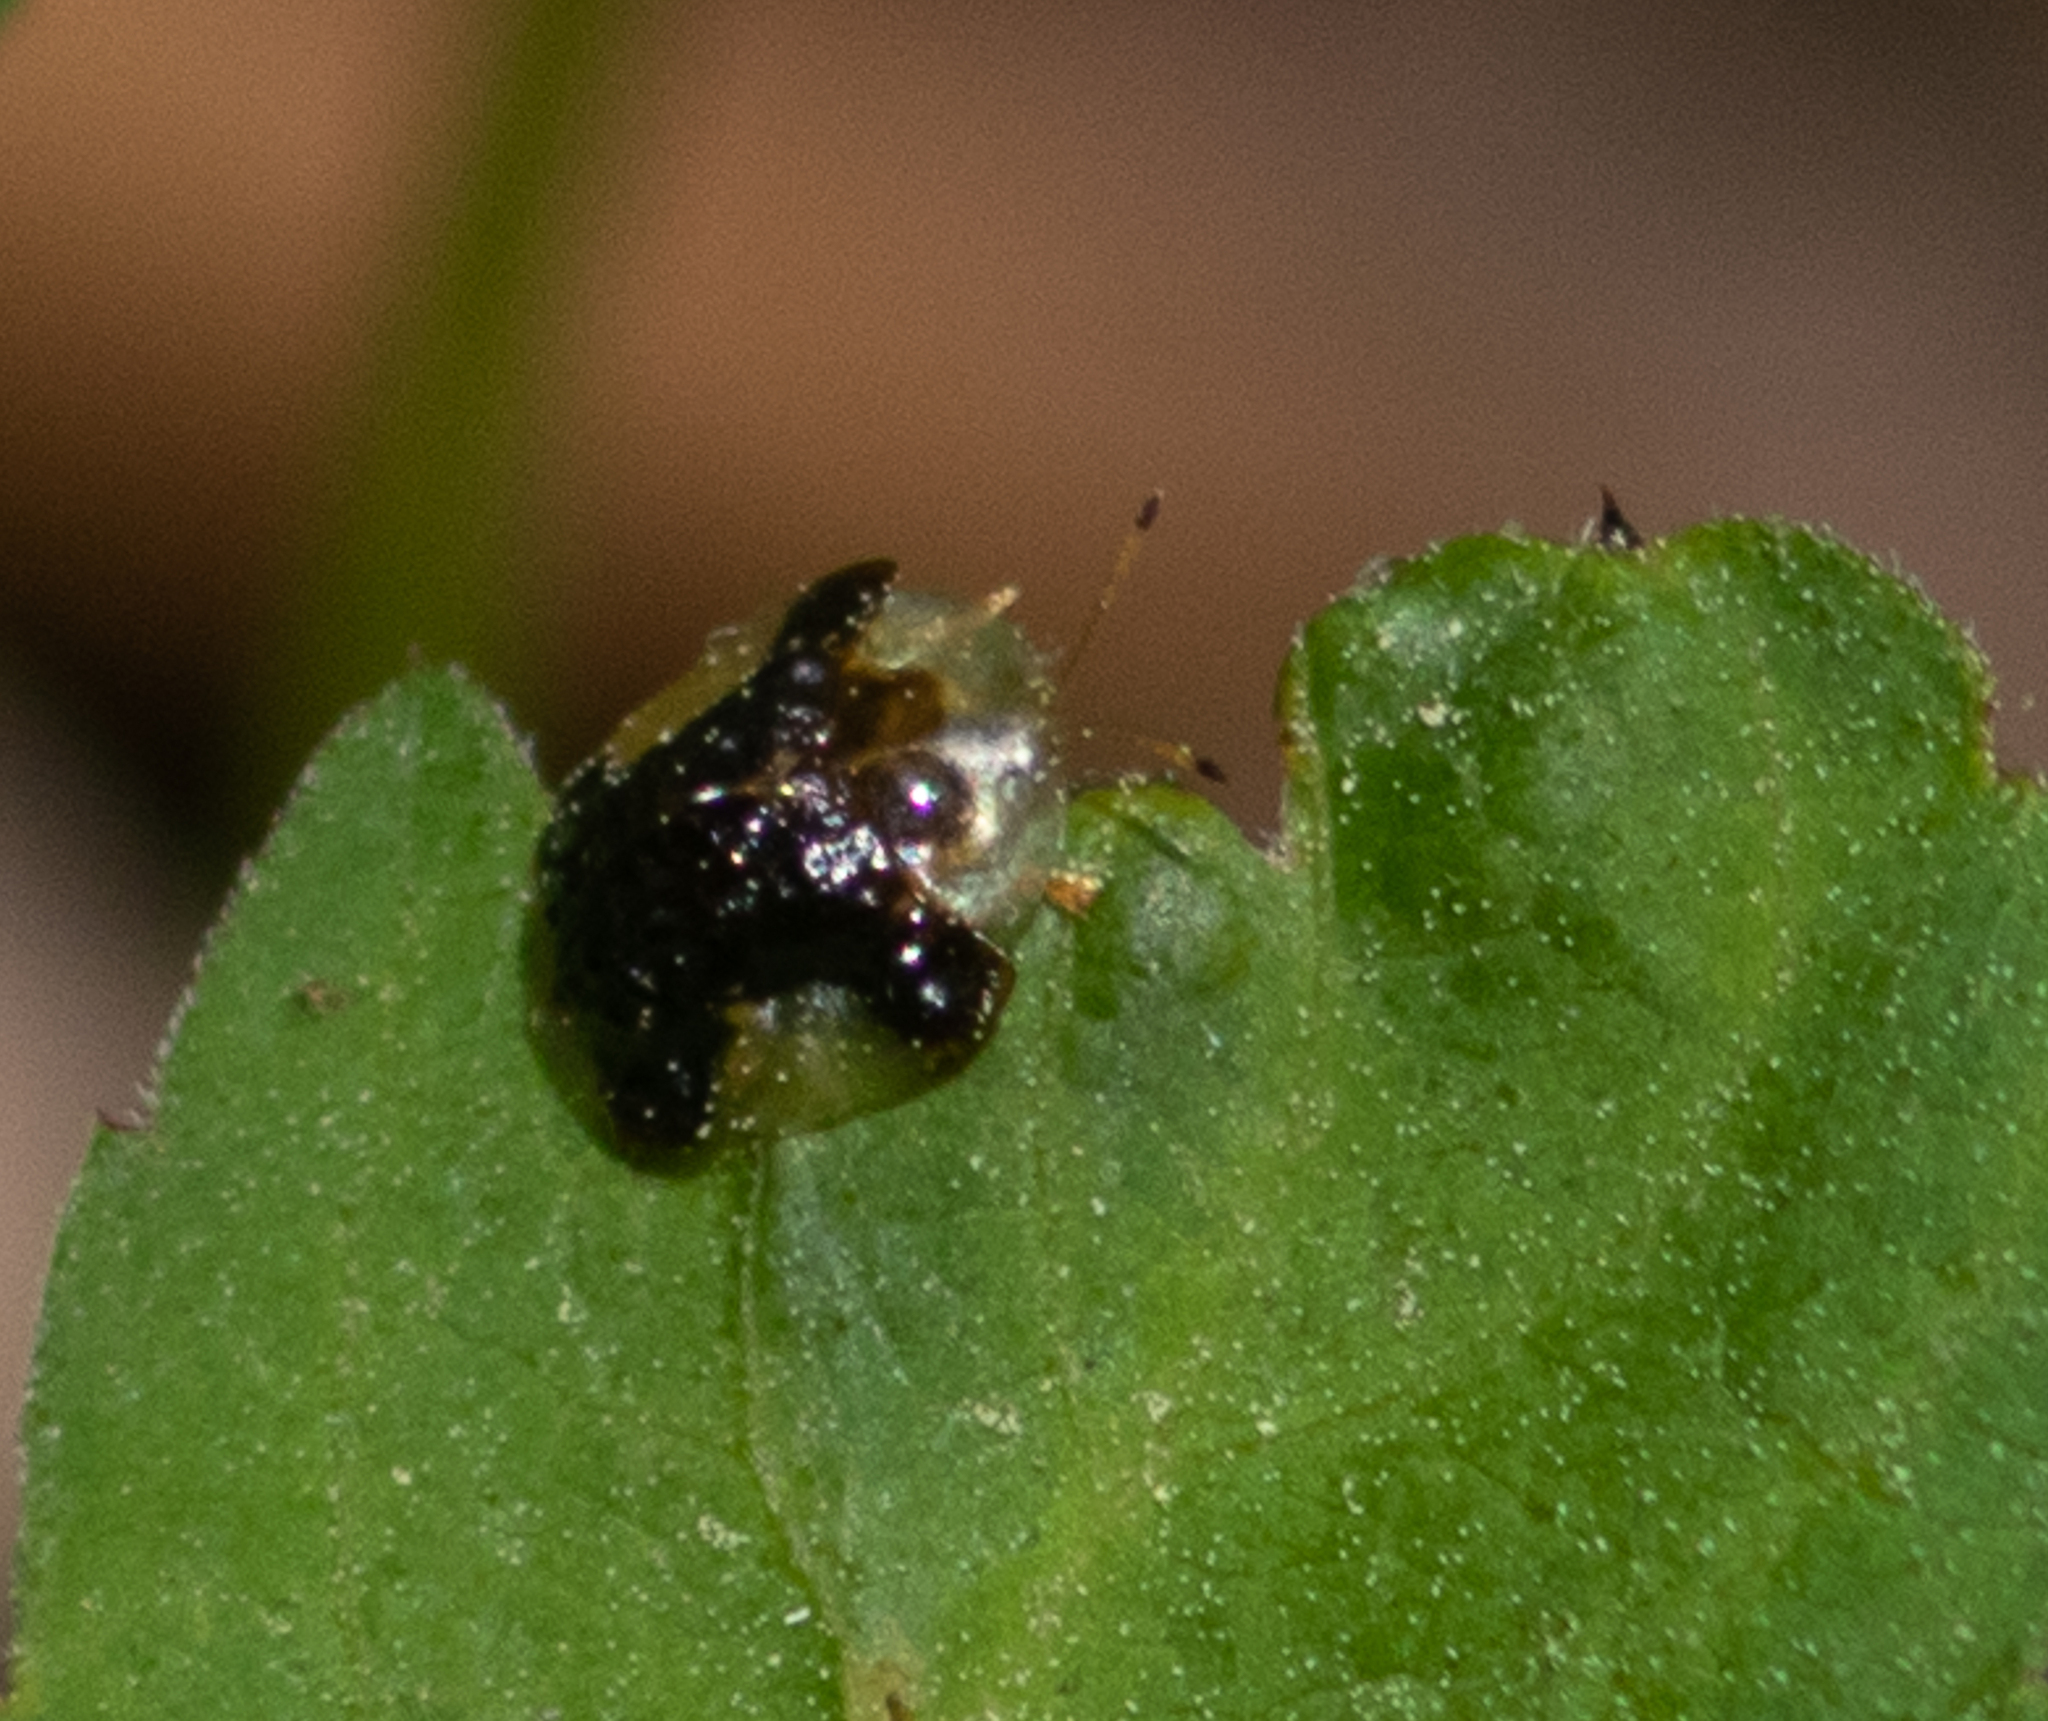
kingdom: Animalia
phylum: Arthropoda
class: Insecta
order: Coleoptera
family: Chrysomelidae
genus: Helocassis
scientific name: Helocassis clavata
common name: Clavate tortoise beetle
